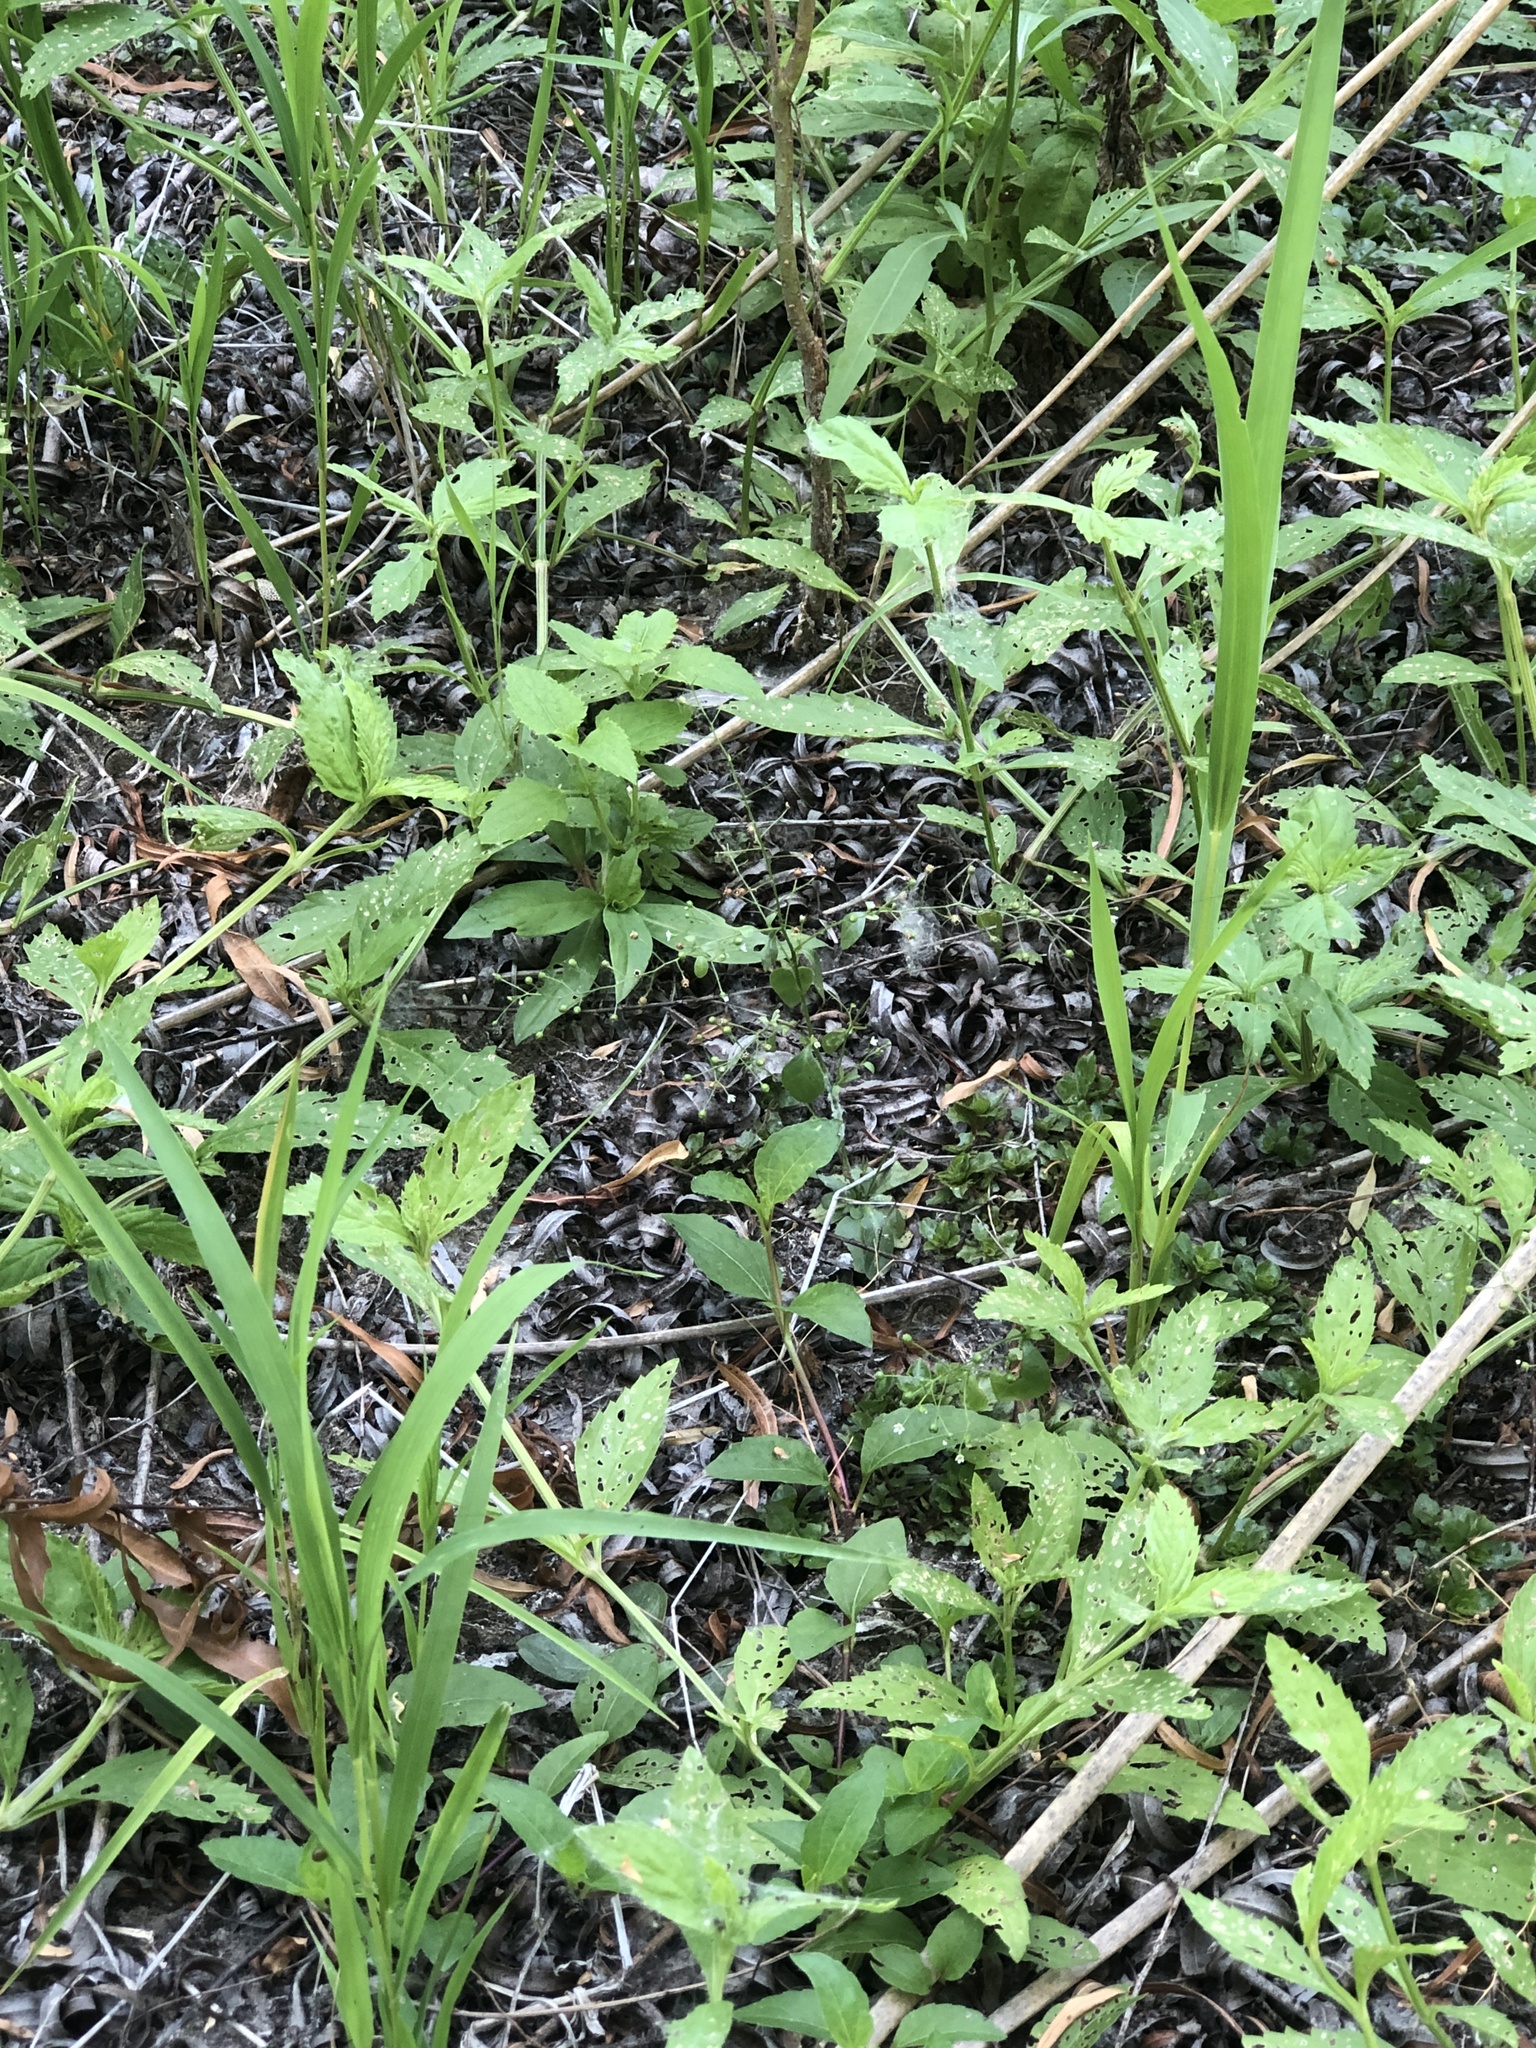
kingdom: Plantae
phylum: Tracheophyta
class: Magnoliopsida
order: Ericales
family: Primulaceae
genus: Samolus
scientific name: Samolus parviflorus
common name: False water pimpernel
